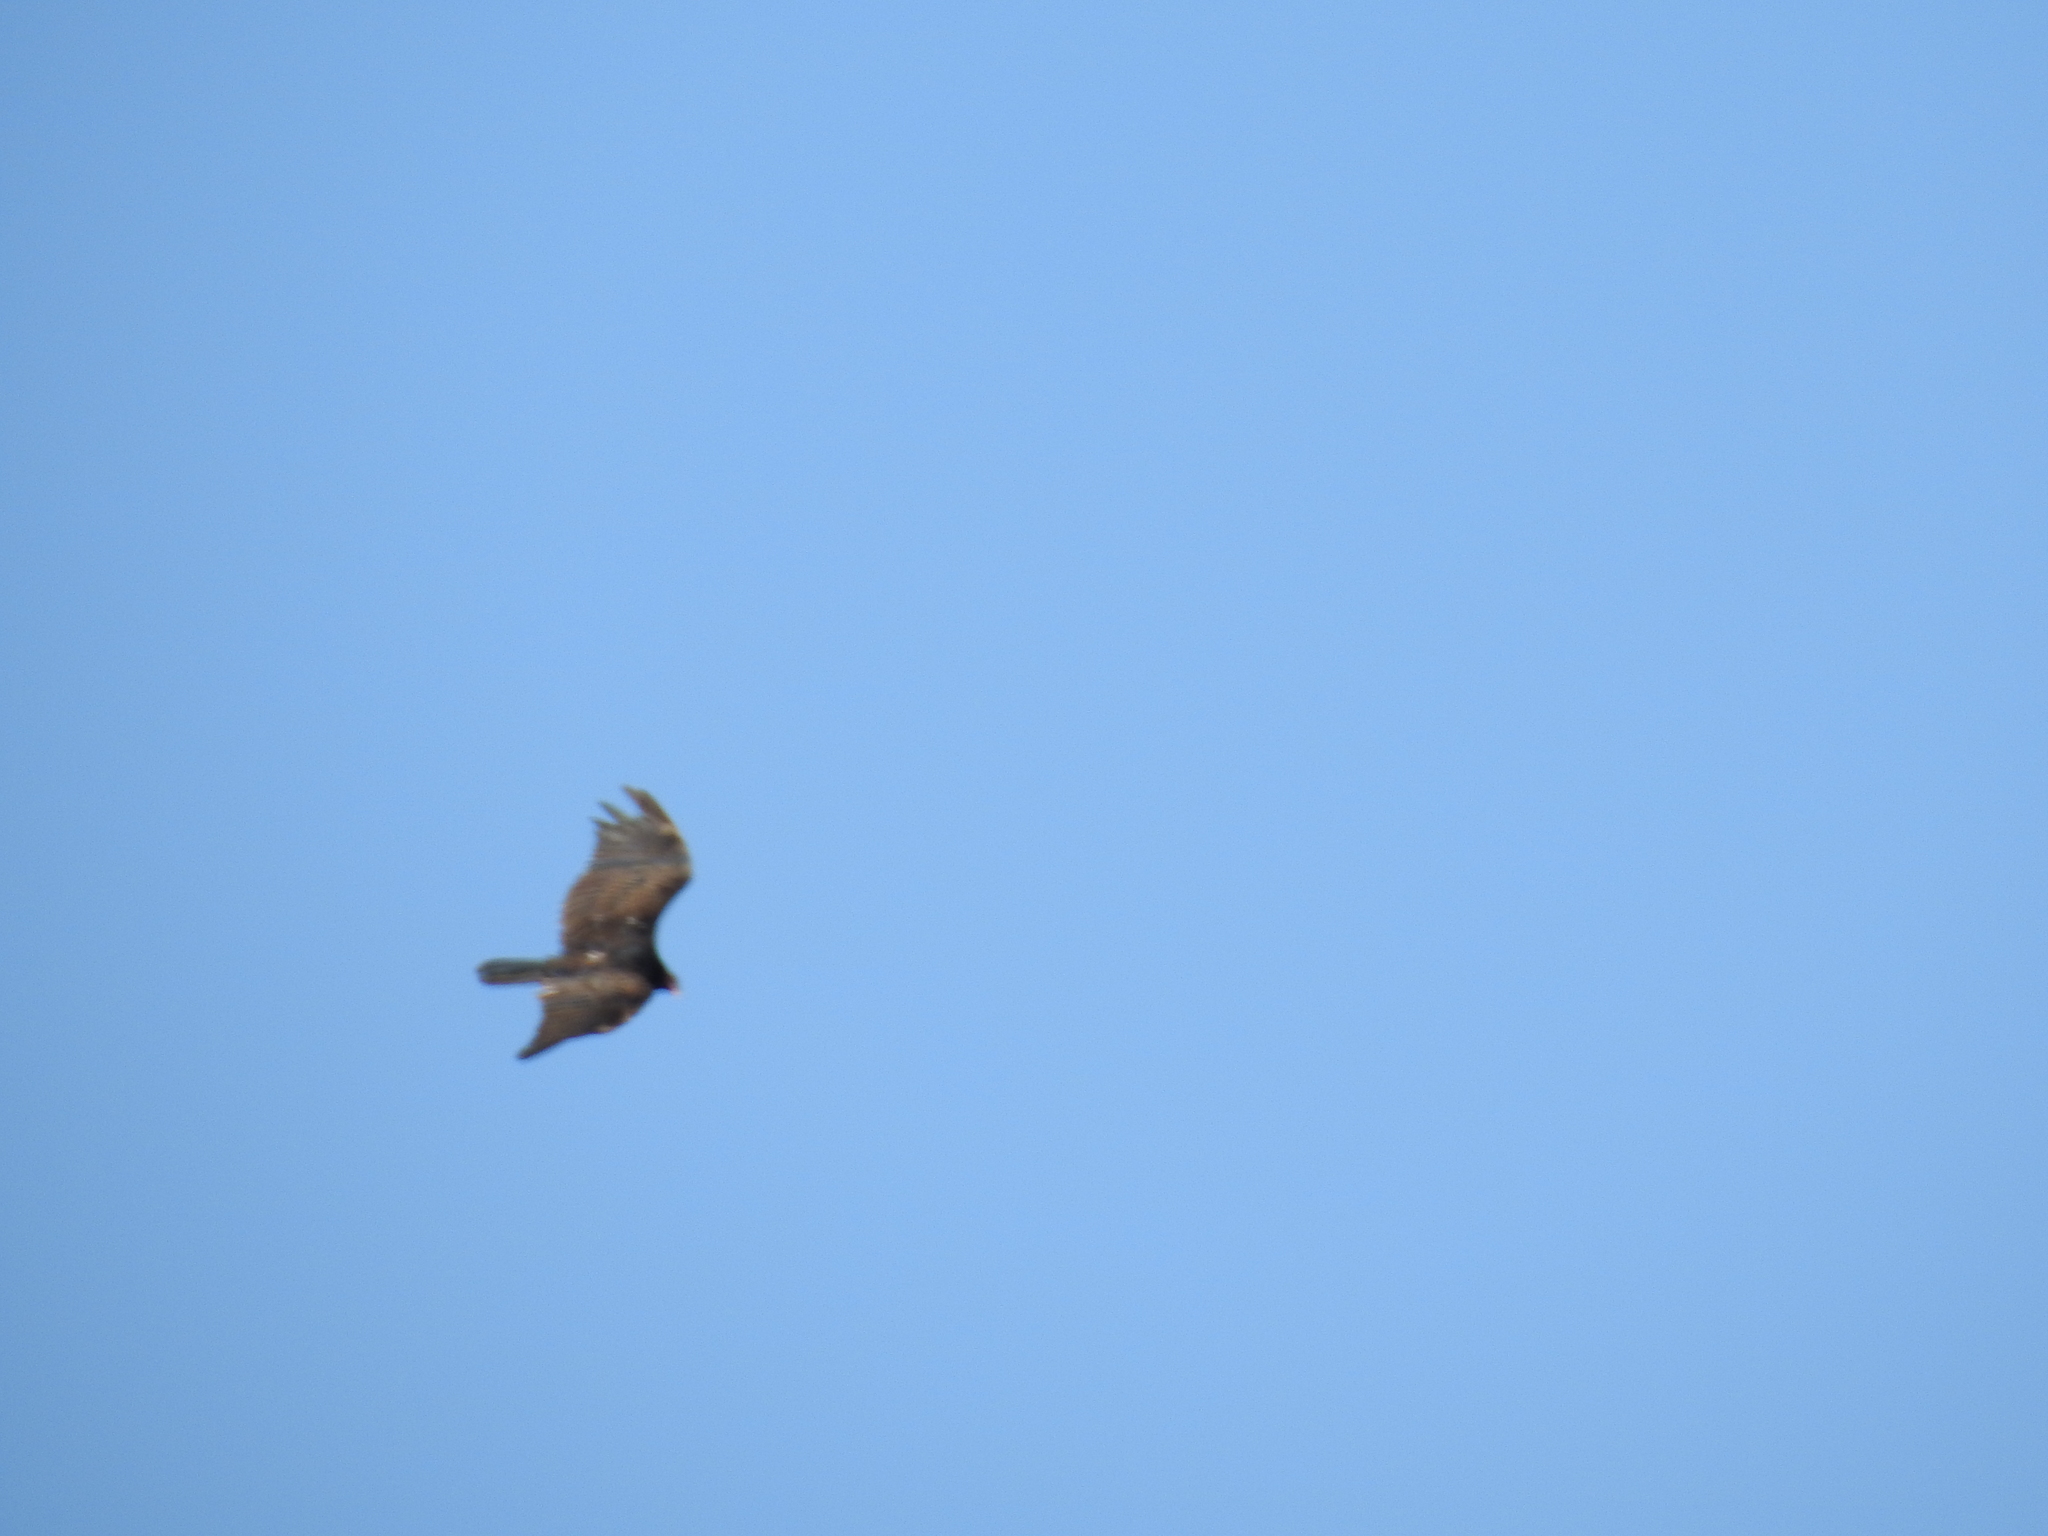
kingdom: Animalia
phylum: Chordata
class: Aves
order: Accipitriformes
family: Cathartidae
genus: Cathartes
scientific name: Cathartes aura
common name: Turkey vulture
